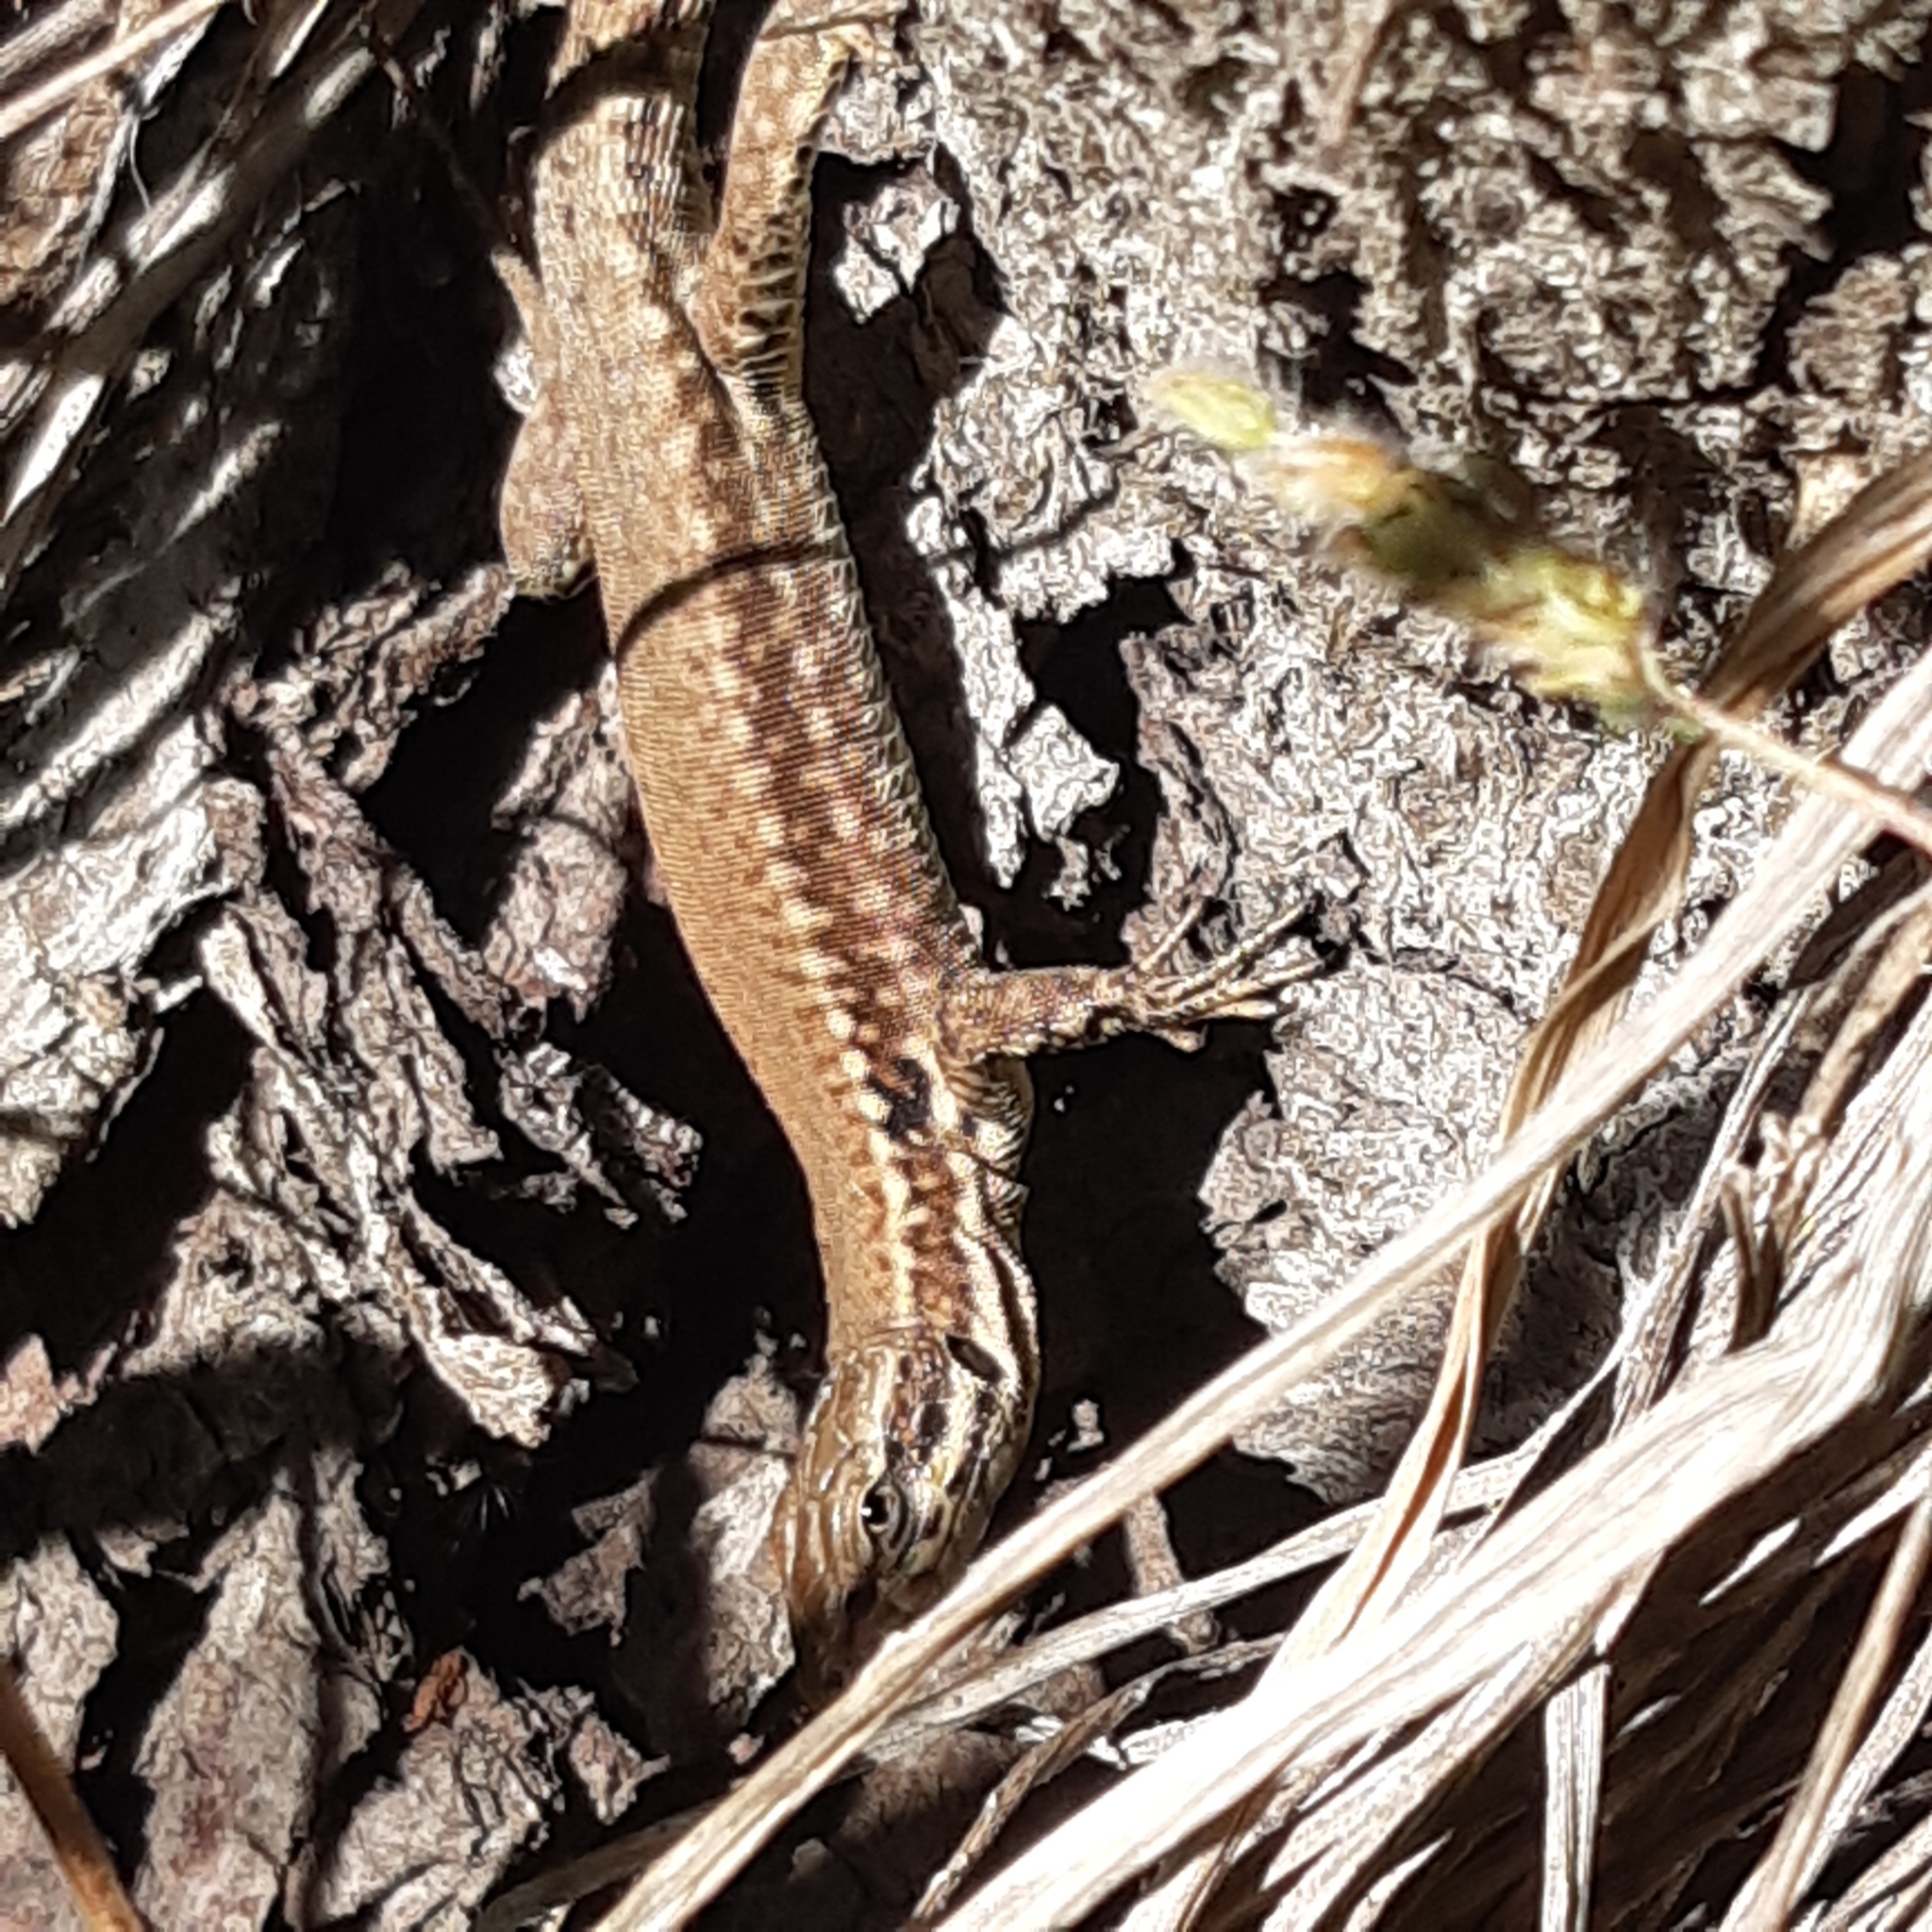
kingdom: Animalia
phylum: Chordata
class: Squamata
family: Lacertidae
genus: Podarcis
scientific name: Podarcis muralis
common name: Common wall lizard
